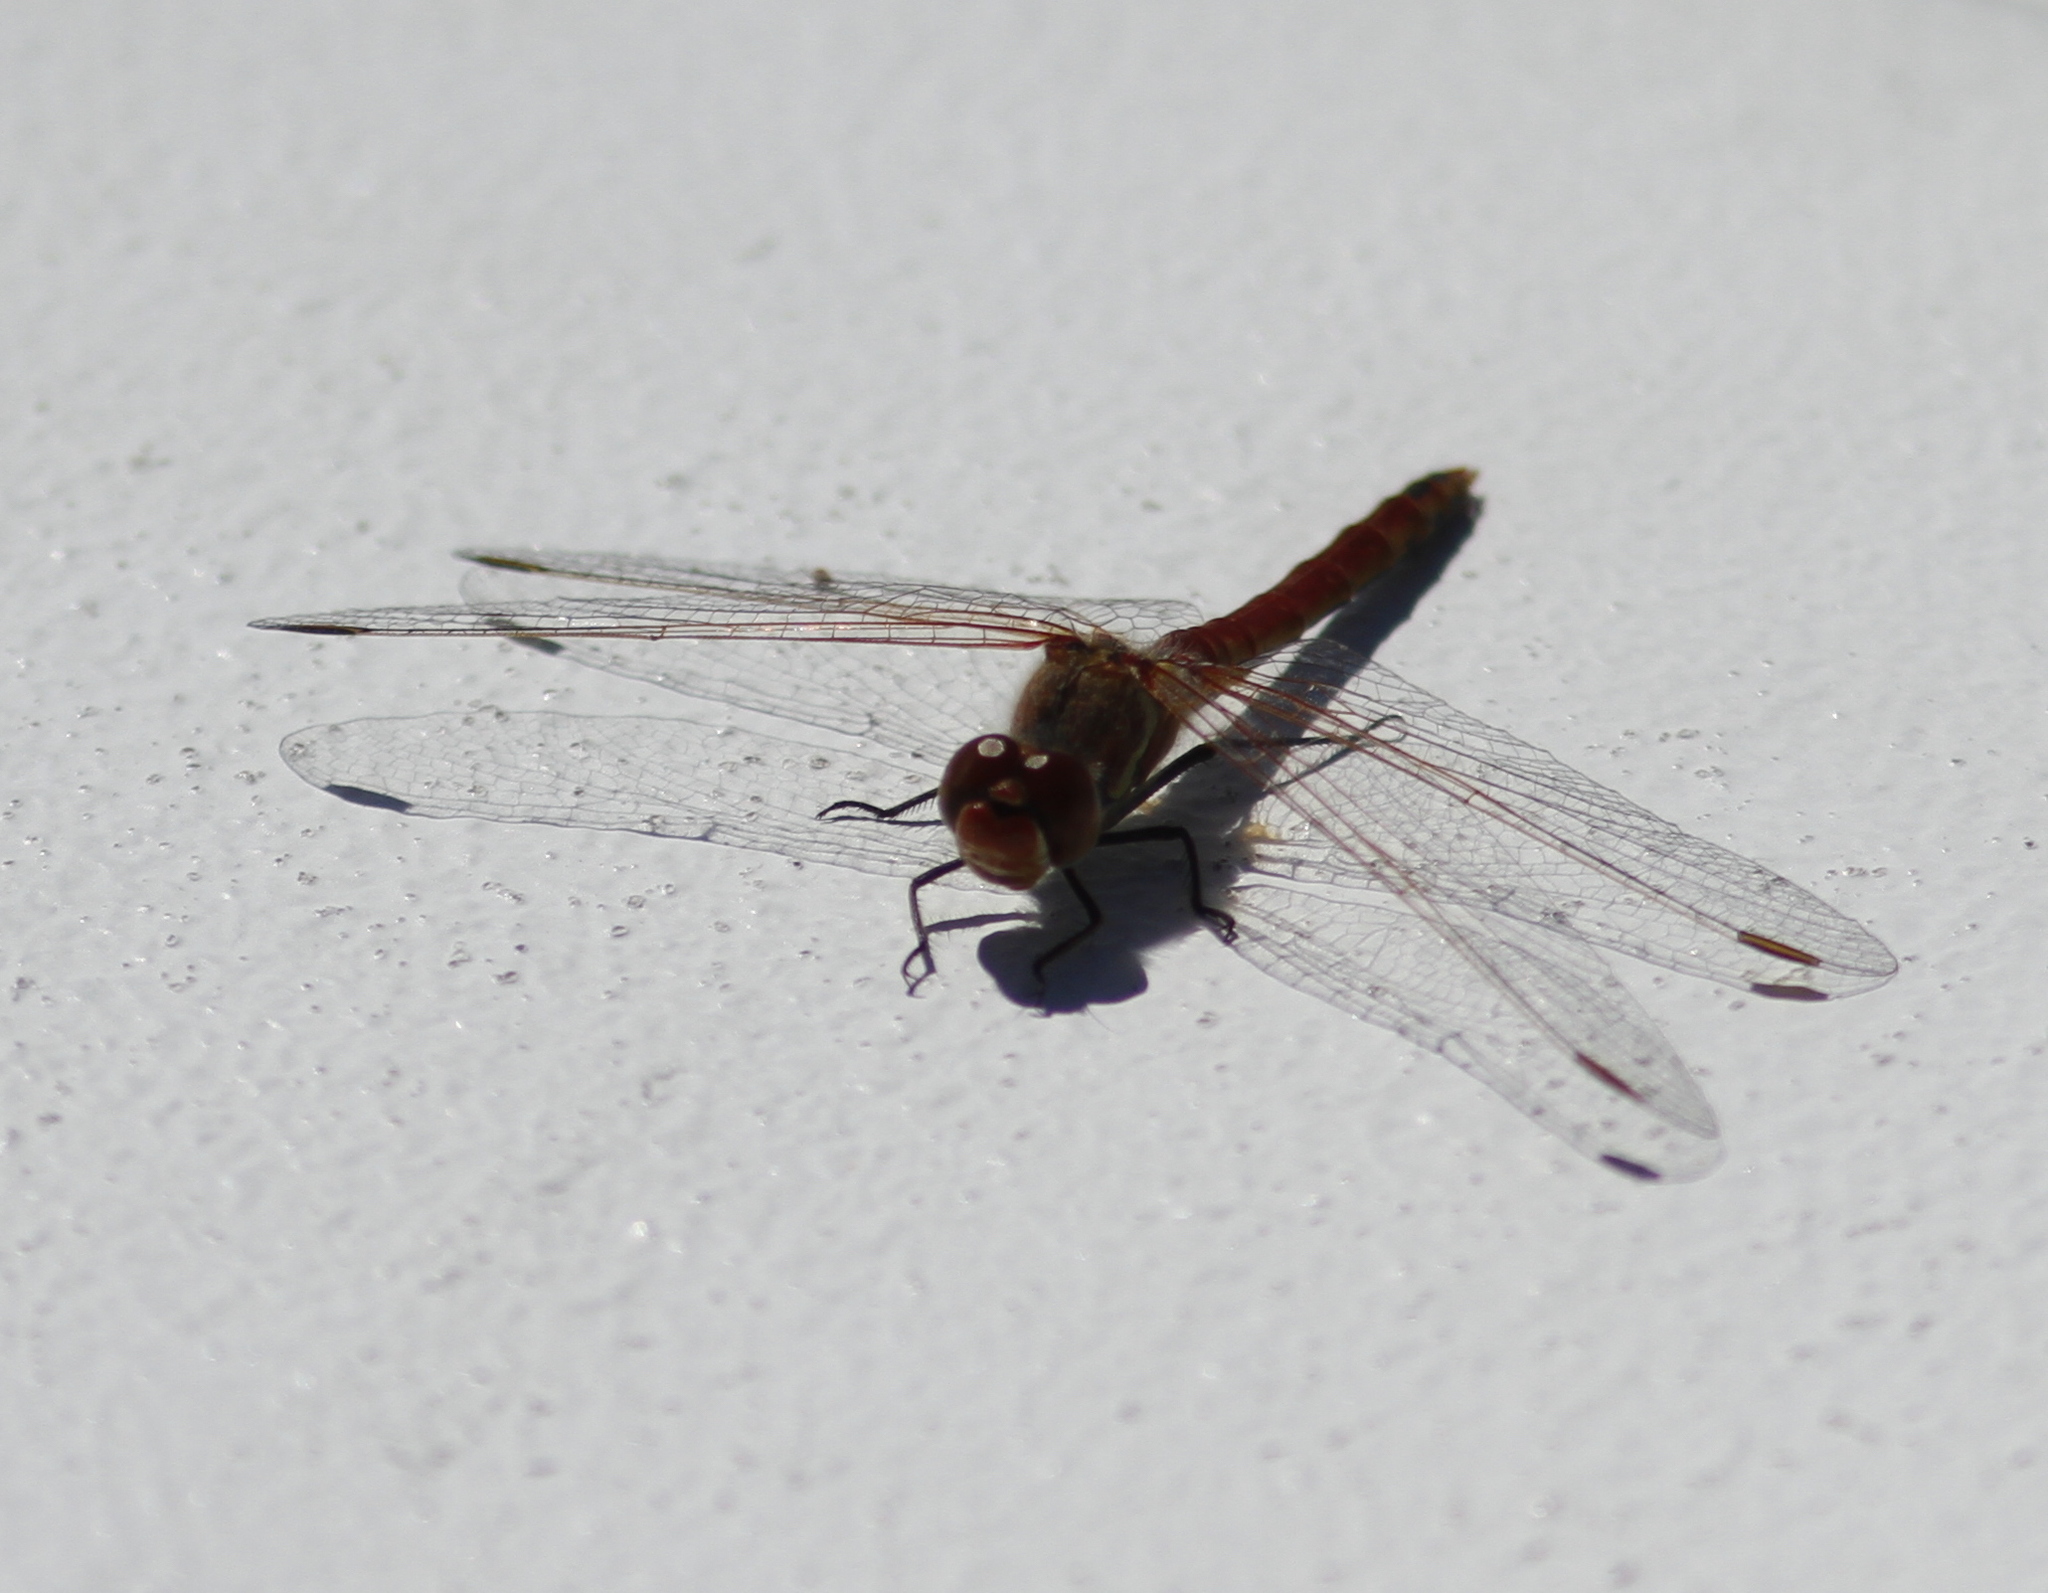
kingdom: Animalia
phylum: Arthropoda
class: Insecta
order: Odonata
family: Libellulidae
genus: Sympetrum
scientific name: Sympetrum fonscolombii
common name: Red-veined darter
